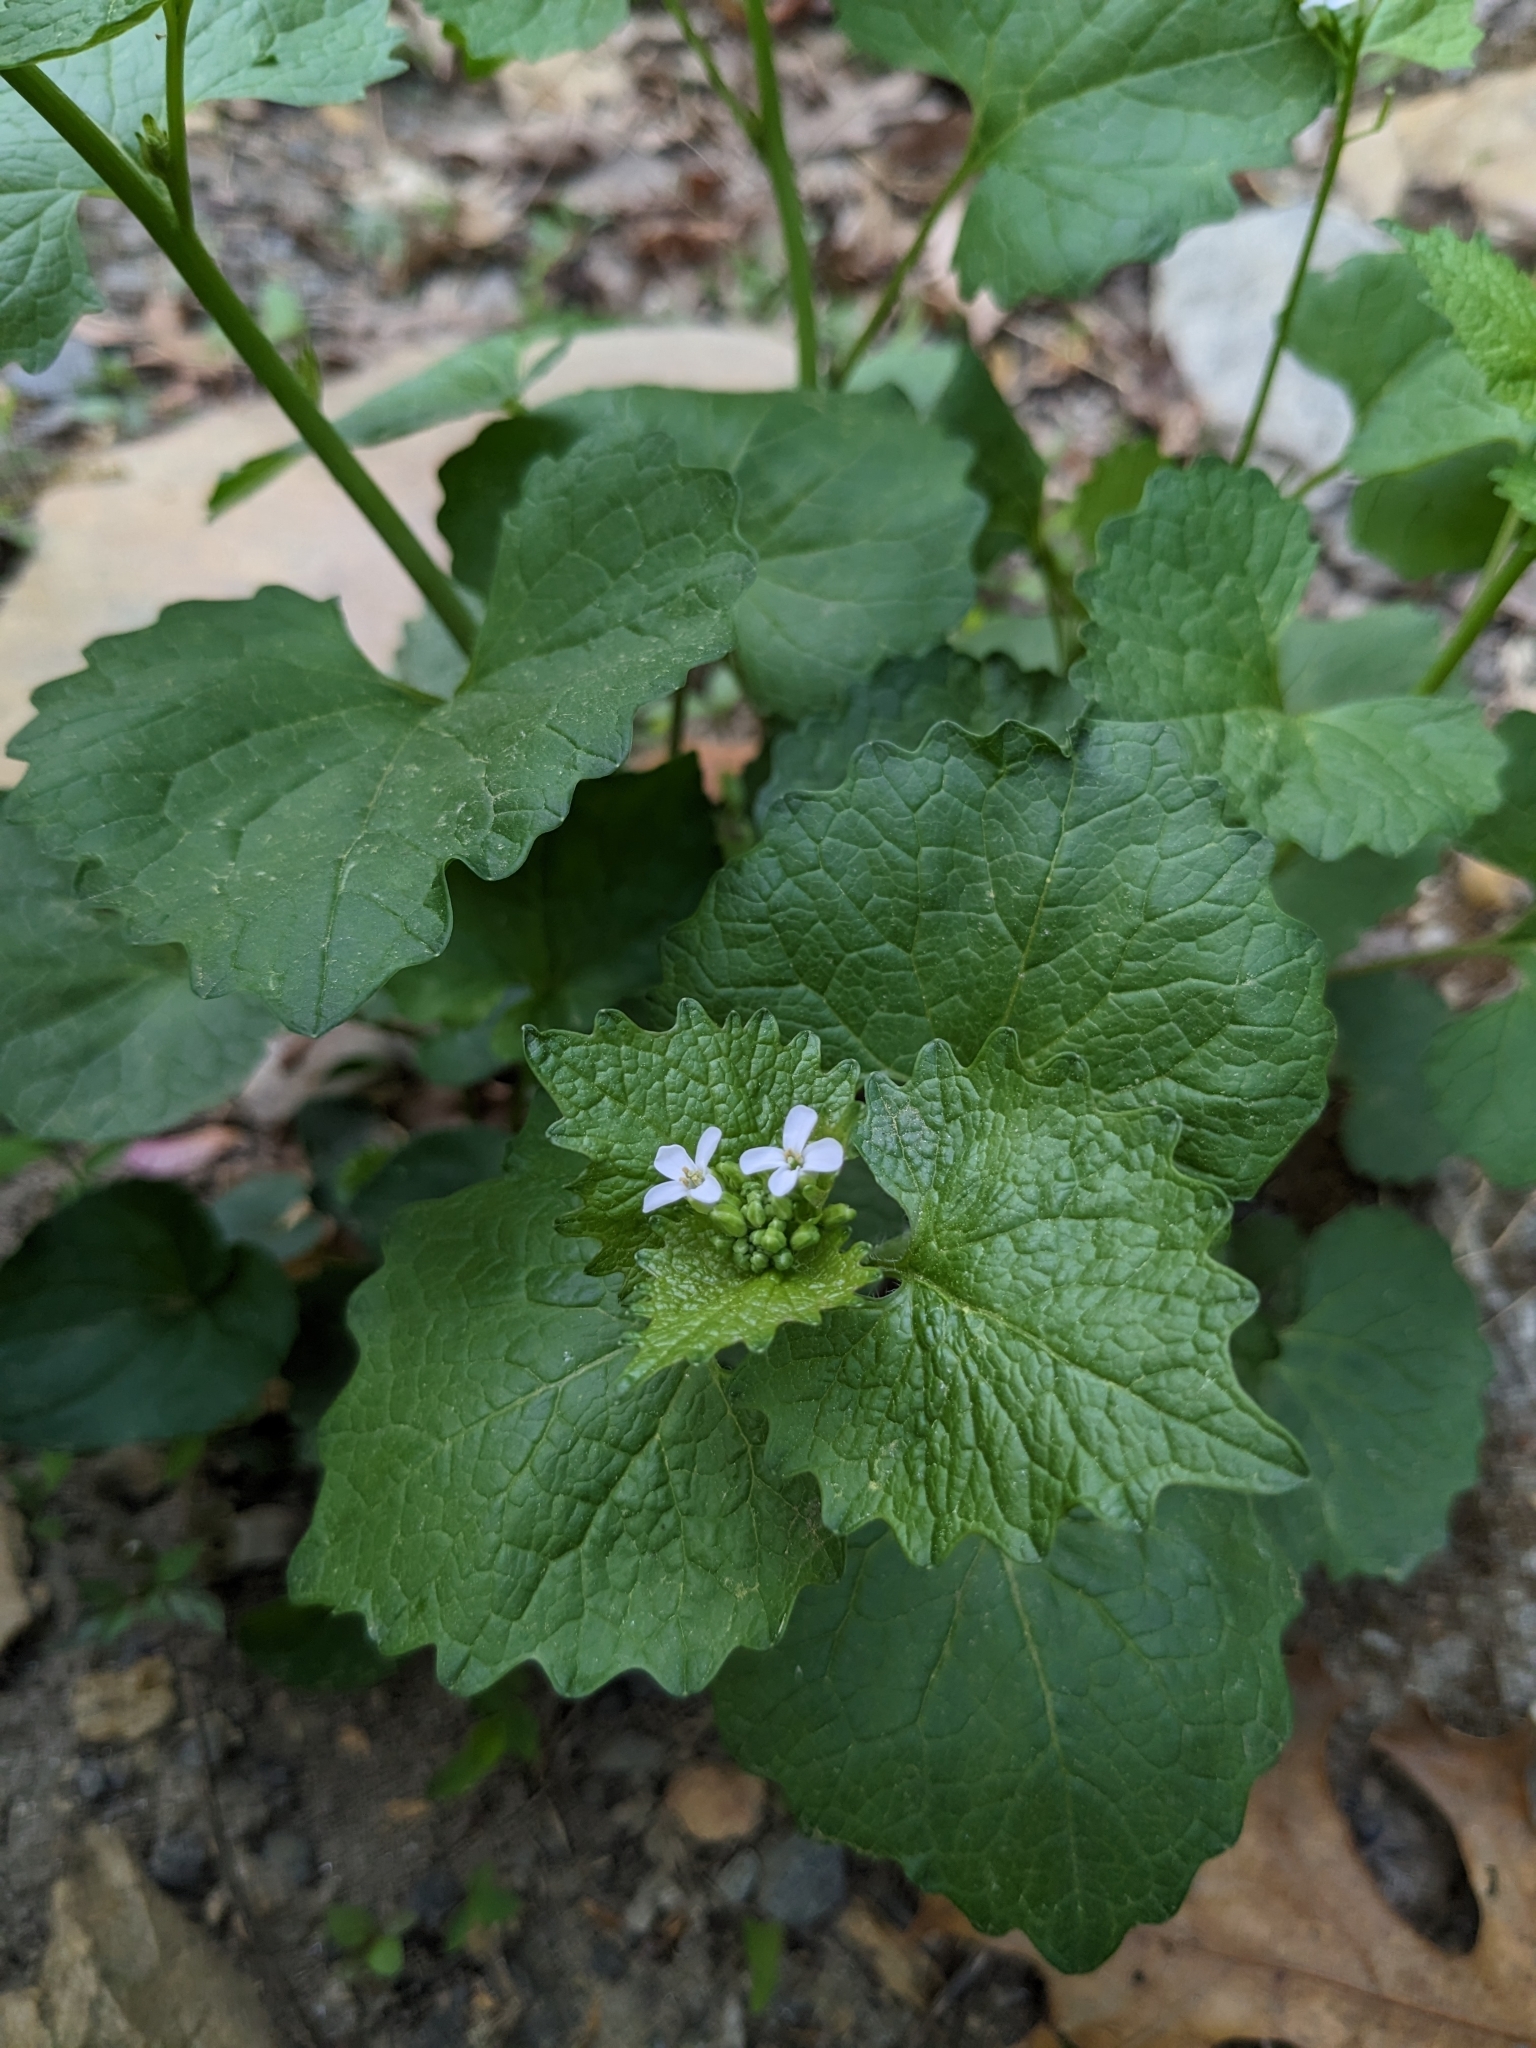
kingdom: Plantae
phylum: Tracheophyta
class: Magnoliopsida
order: Brassicales
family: Brassicaceae
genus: Alliaria
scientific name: Alliaria petiolata
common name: Garlic mustard
